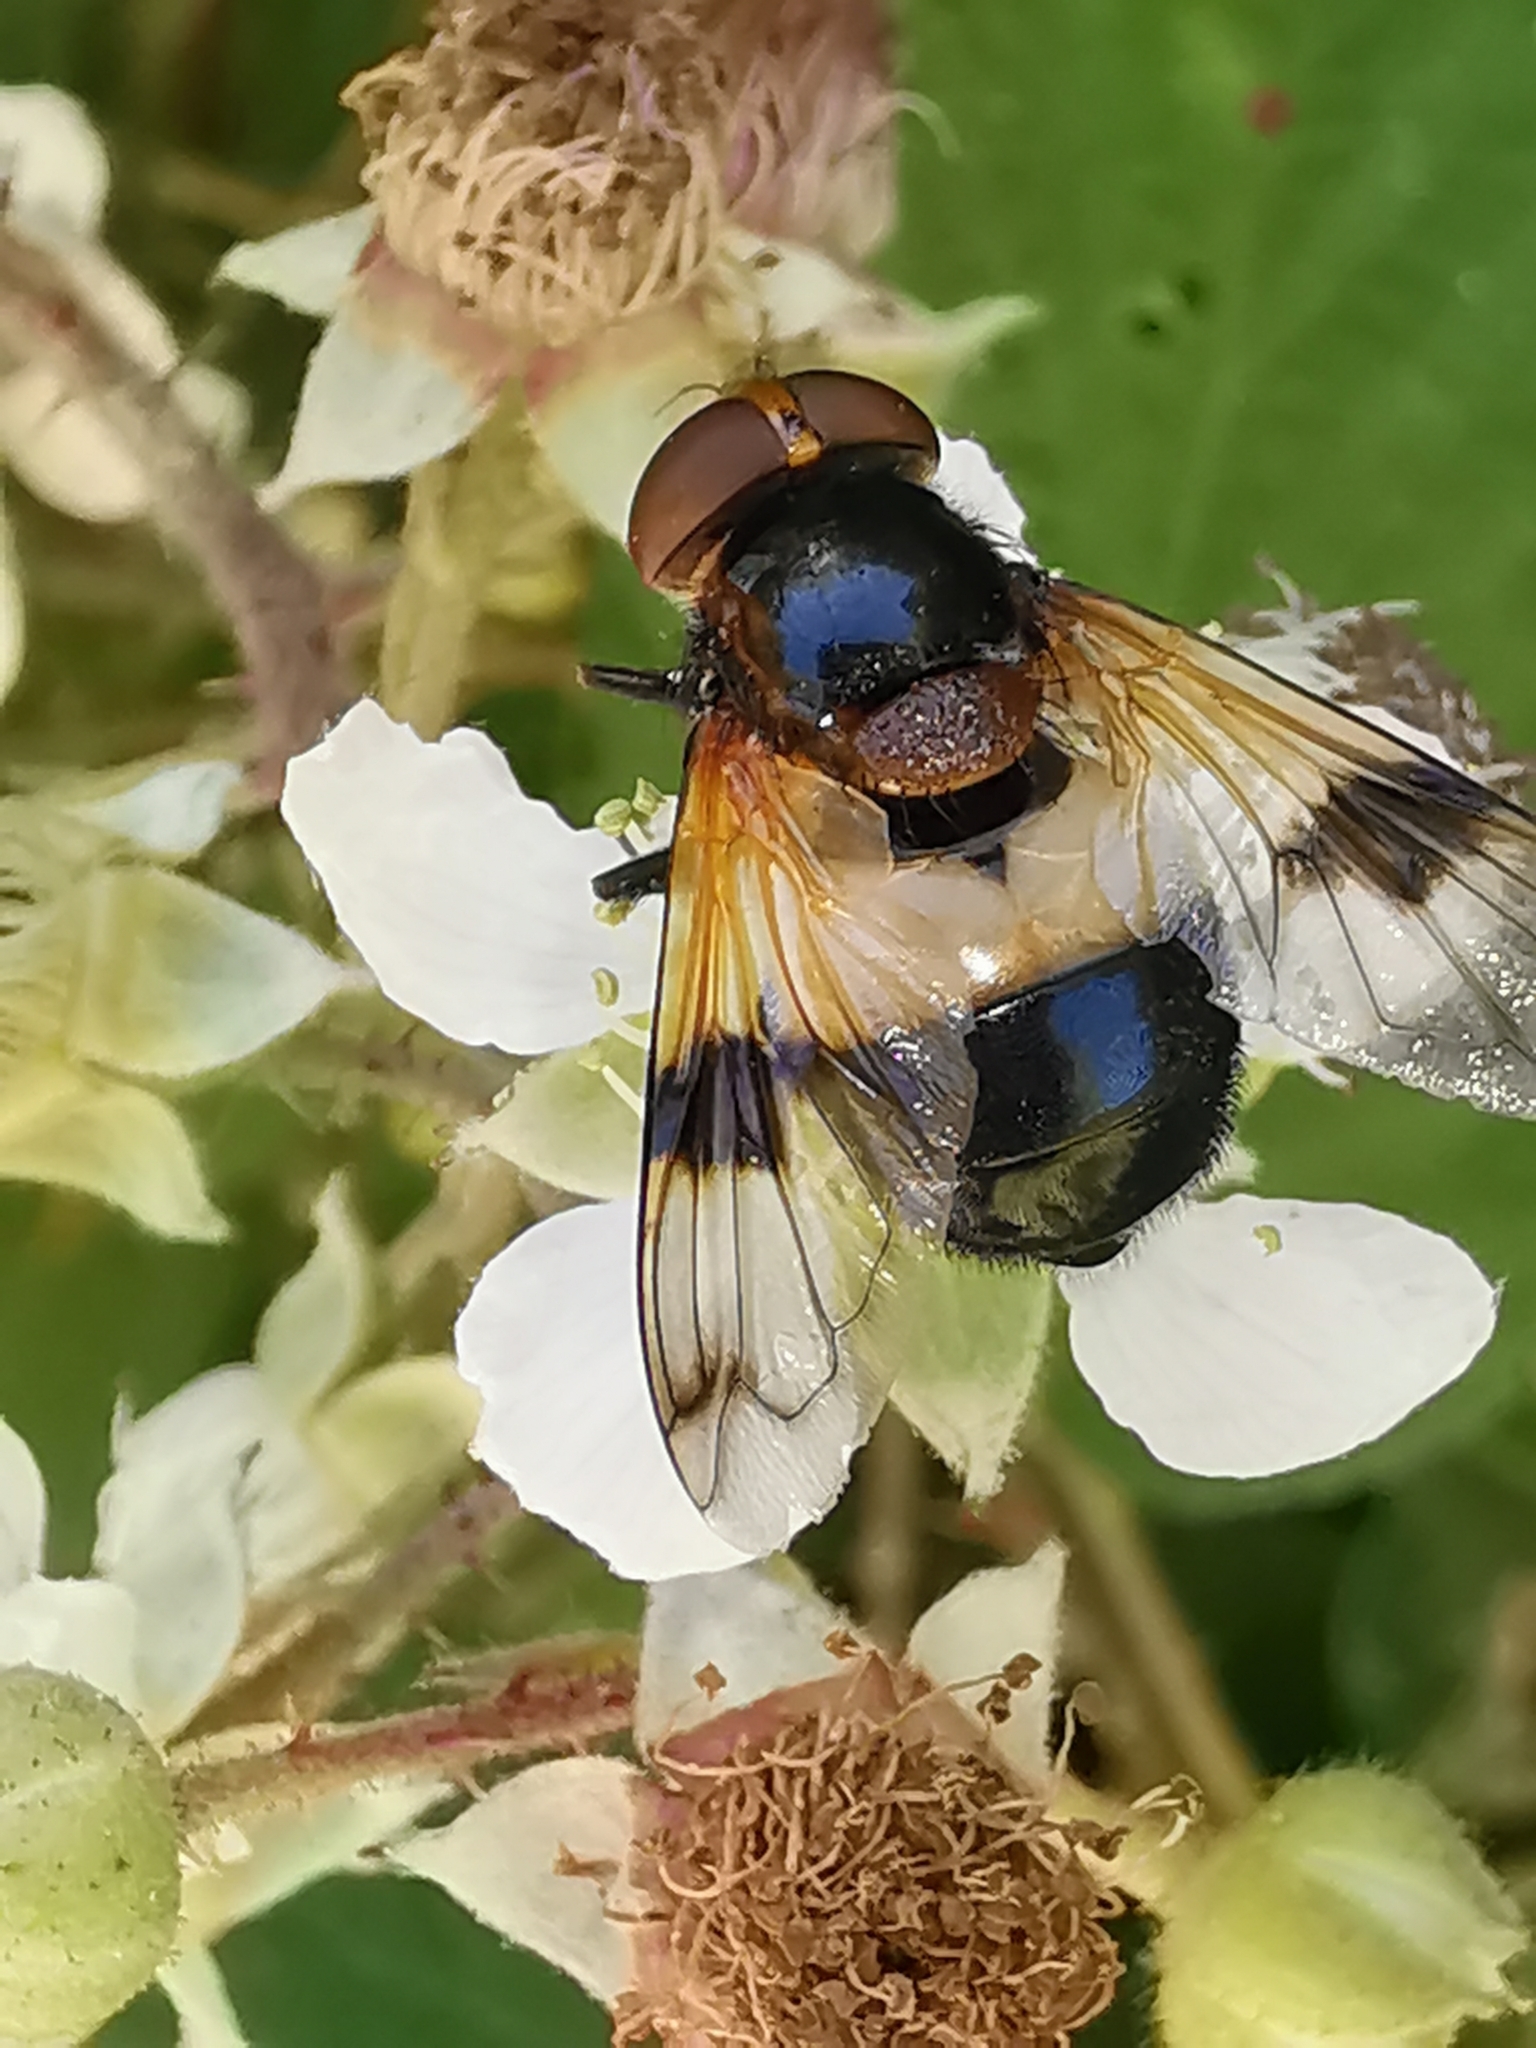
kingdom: Animalia
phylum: Arthropoda
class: Insecta
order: Diptera
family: Syrphidae
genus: Volucella
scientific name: Volucella pellucens
